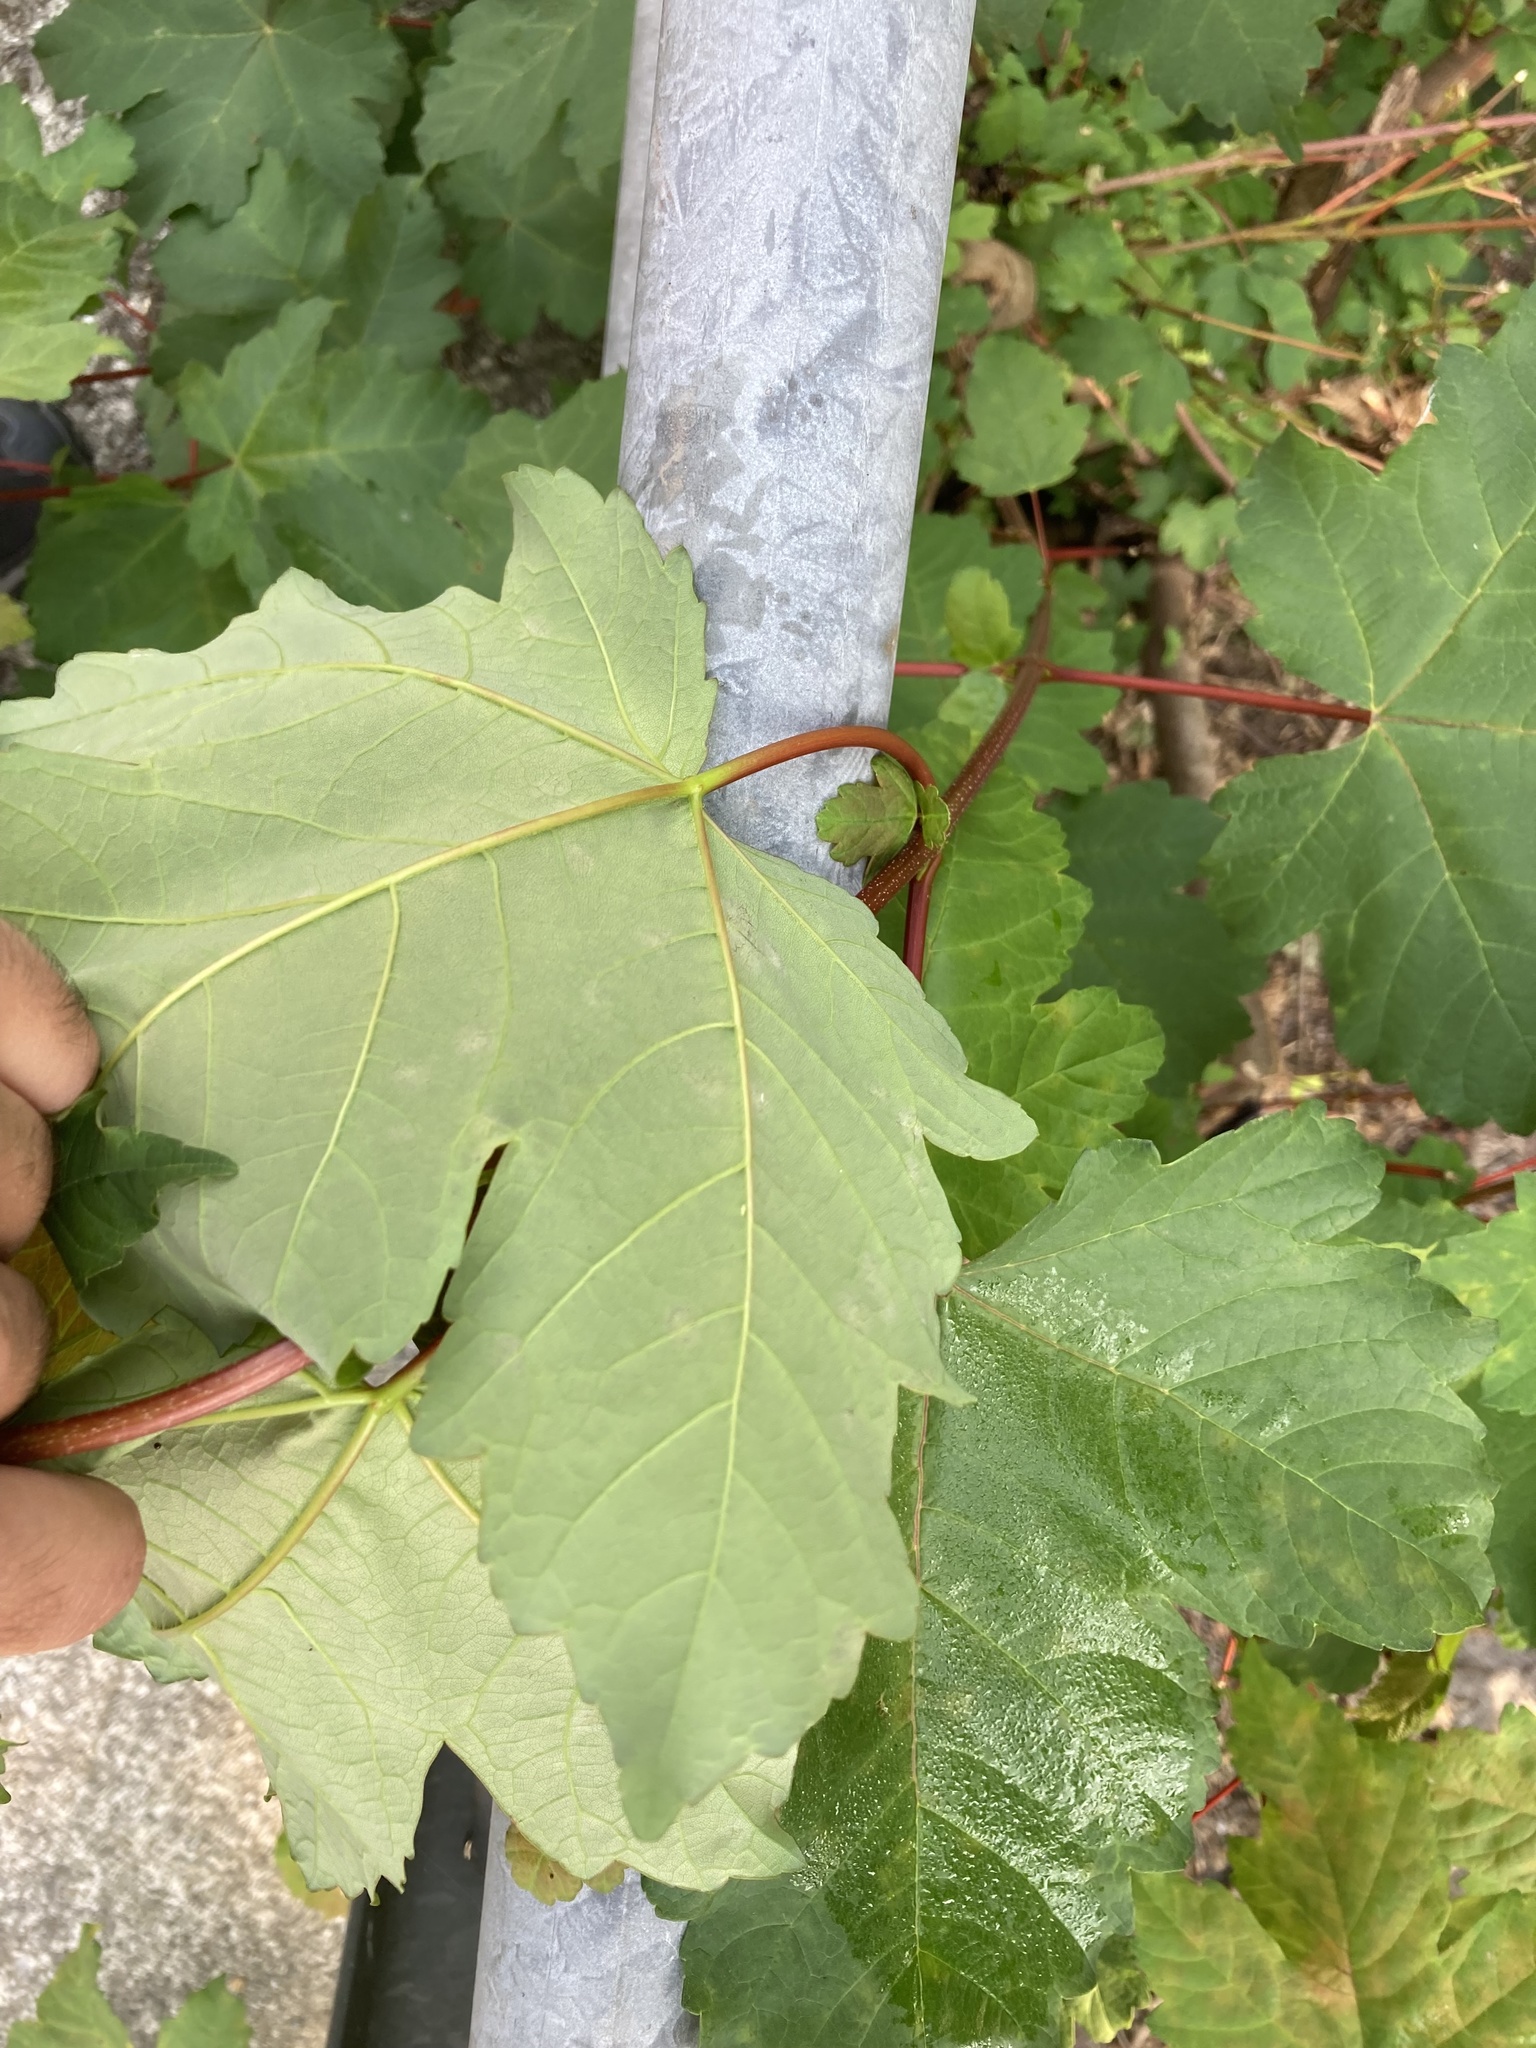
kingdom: Plantae
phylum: Tracheophyta
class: Magnoliopsida
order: Sapindales
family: Sapindaceae
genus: Acer
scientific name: Acer pseudoplatanus
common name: Sycamore
